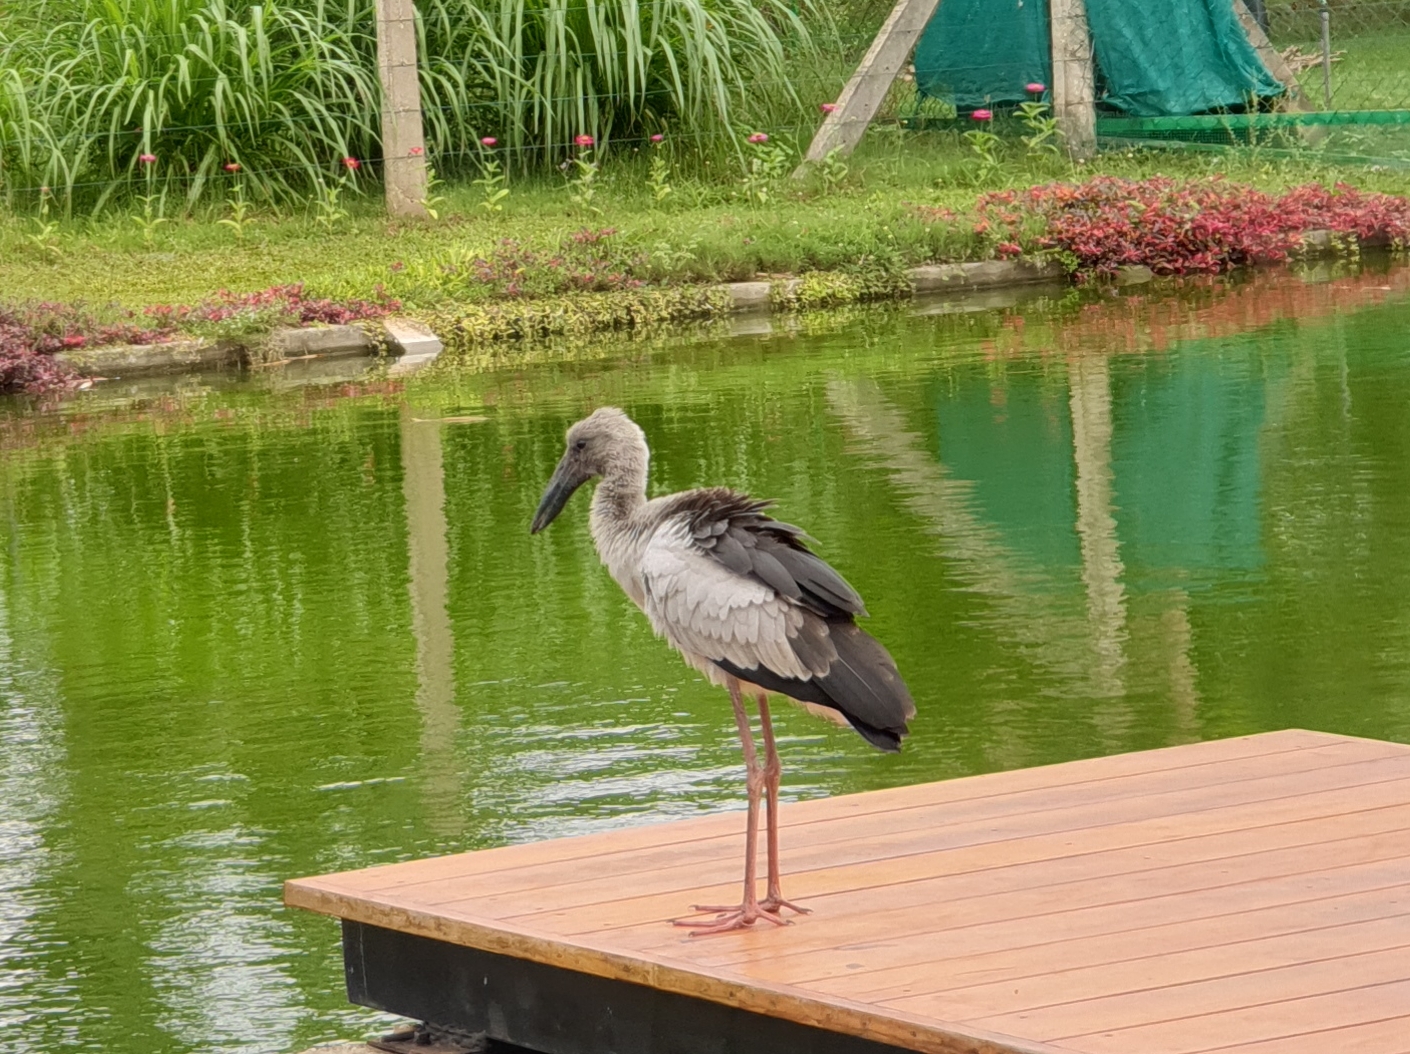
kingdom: Animalia
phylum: Chordata
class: Aves
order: Ciconiiformes
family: Ciconiidae
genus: Anastomus
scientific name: Anastomus oscitans
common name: Asian openbill
